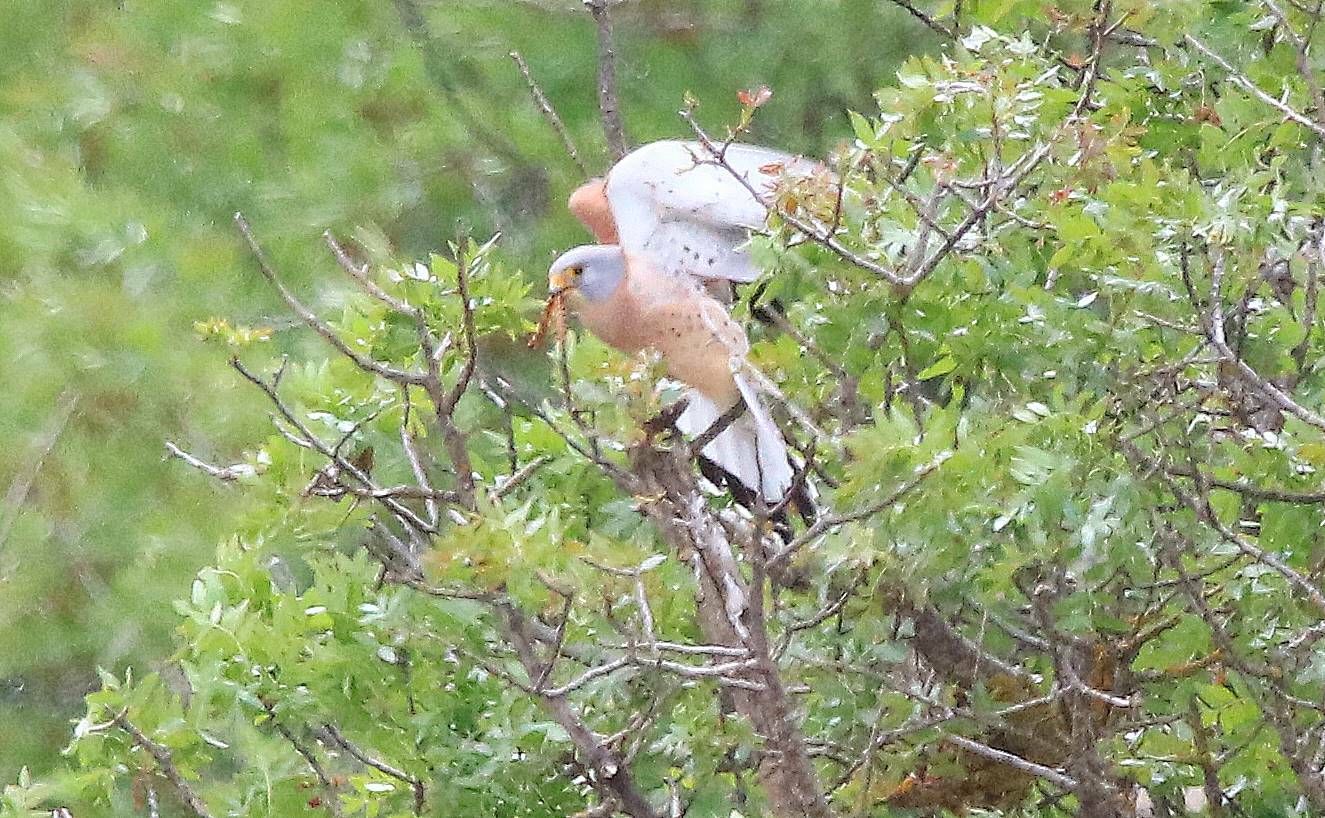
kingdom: Animalia
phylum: Chordata
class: Aves
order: Falconiformes
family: Falconidae
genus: Falco
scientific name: Falco naumanni
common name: Lesser kestrel
